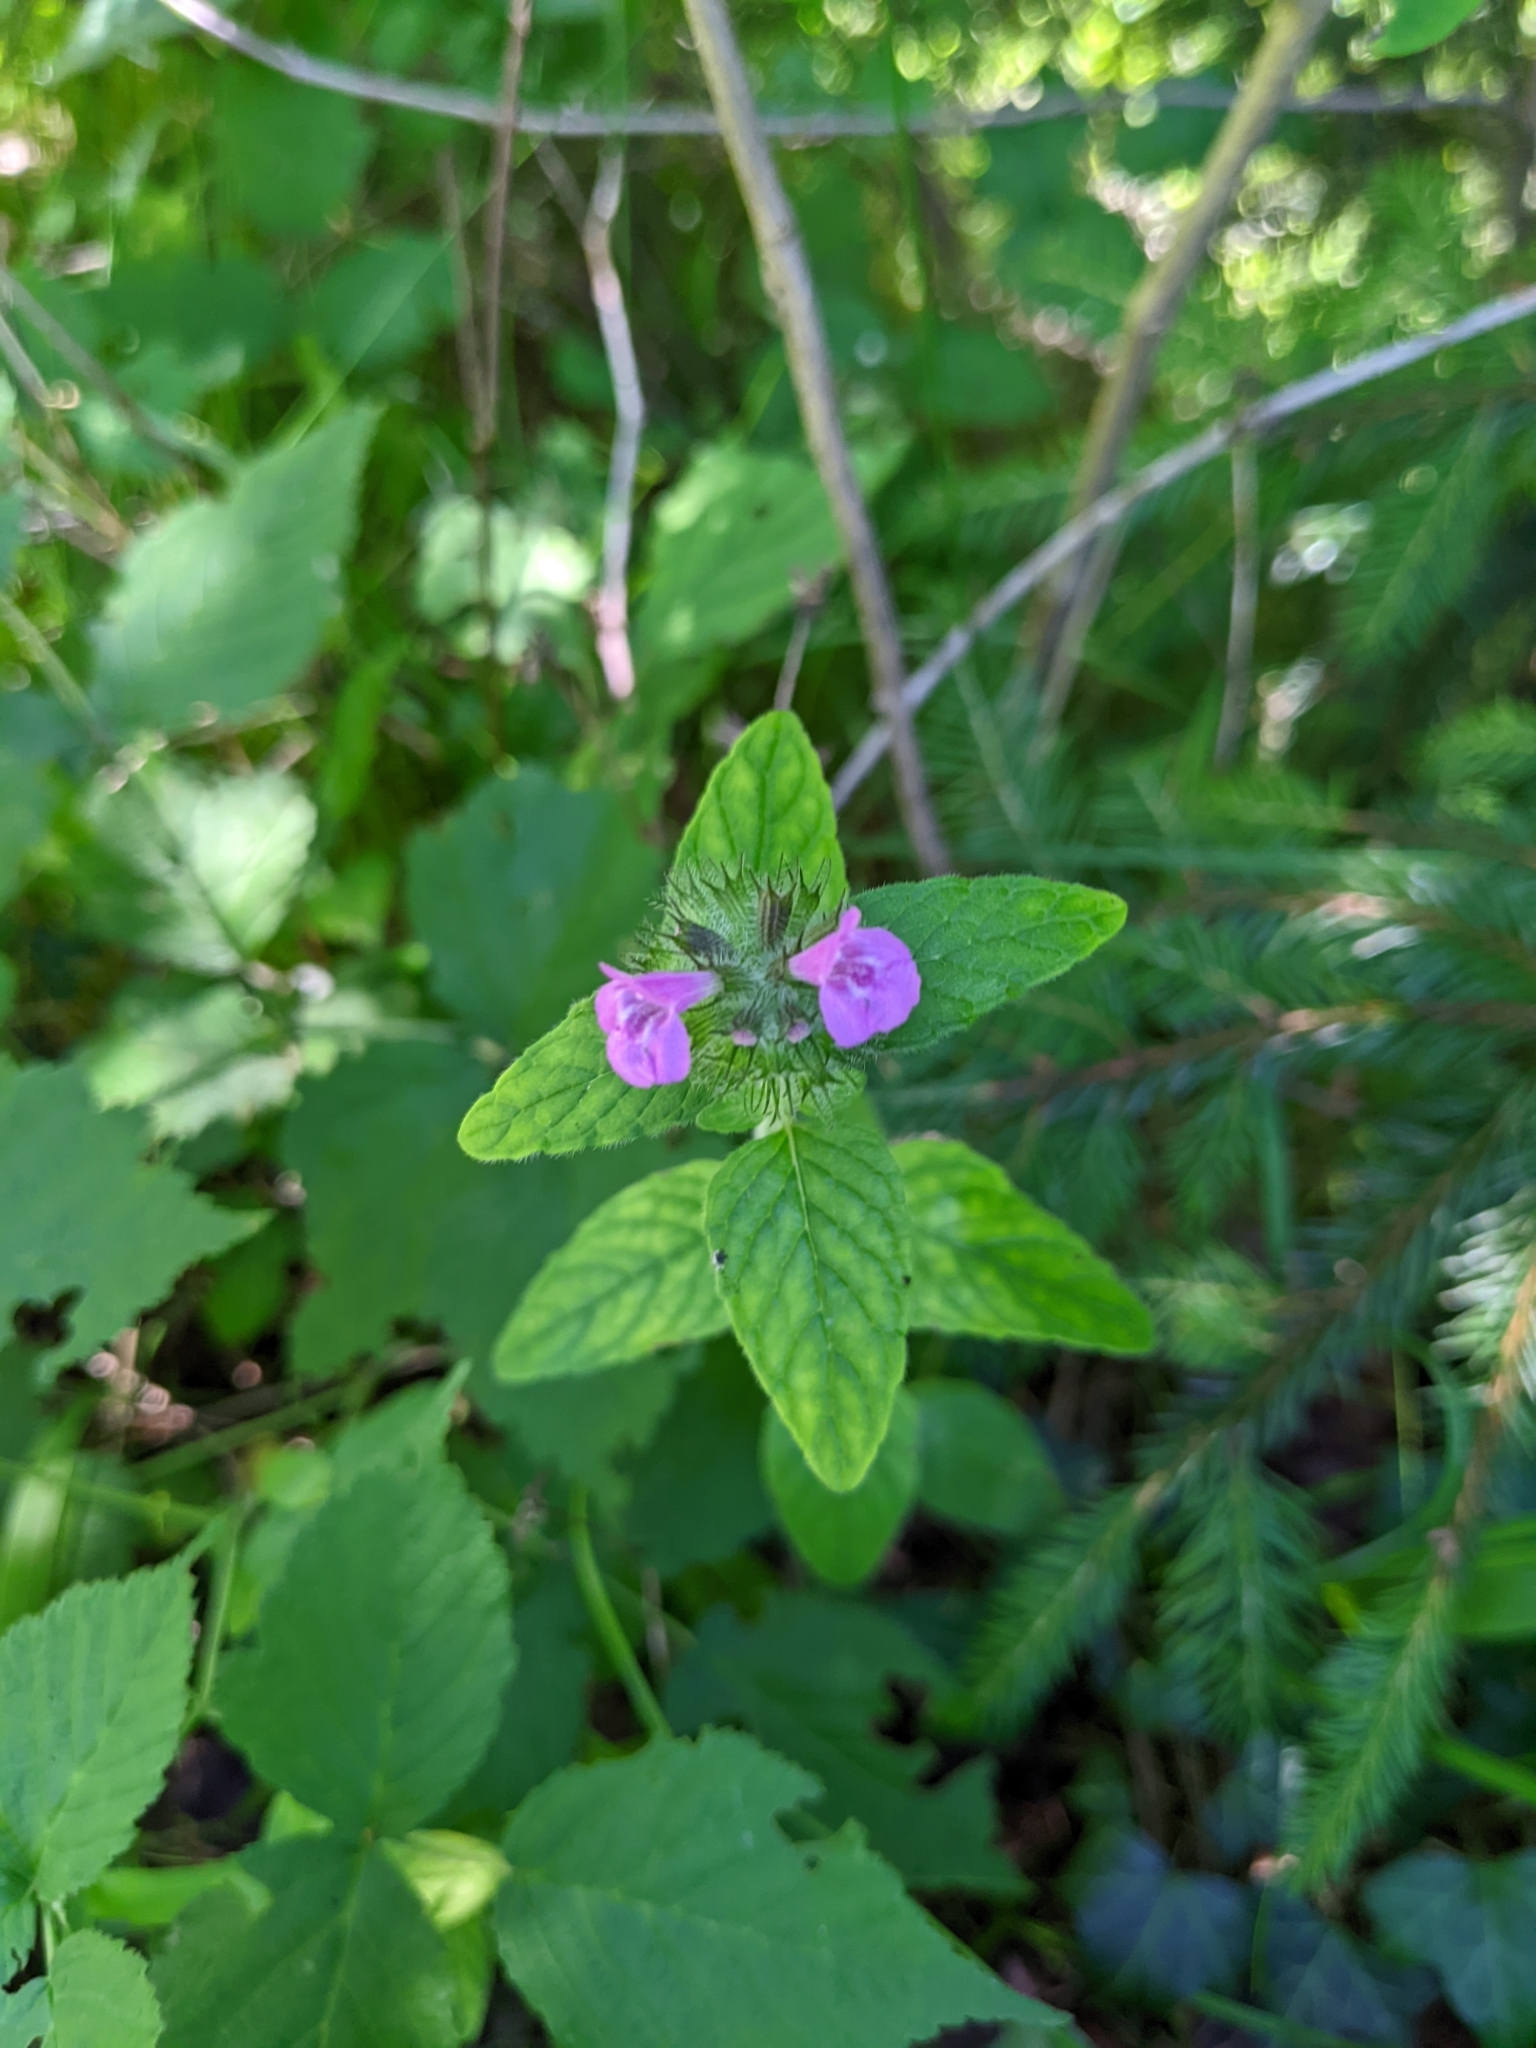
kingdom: Plantae
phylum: Tracheophyta
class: Magnoliopsida
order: Lamiales
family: Lamiaceae
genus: Clinopodium
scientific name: Clinopodium vulgare
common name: Wild basil
